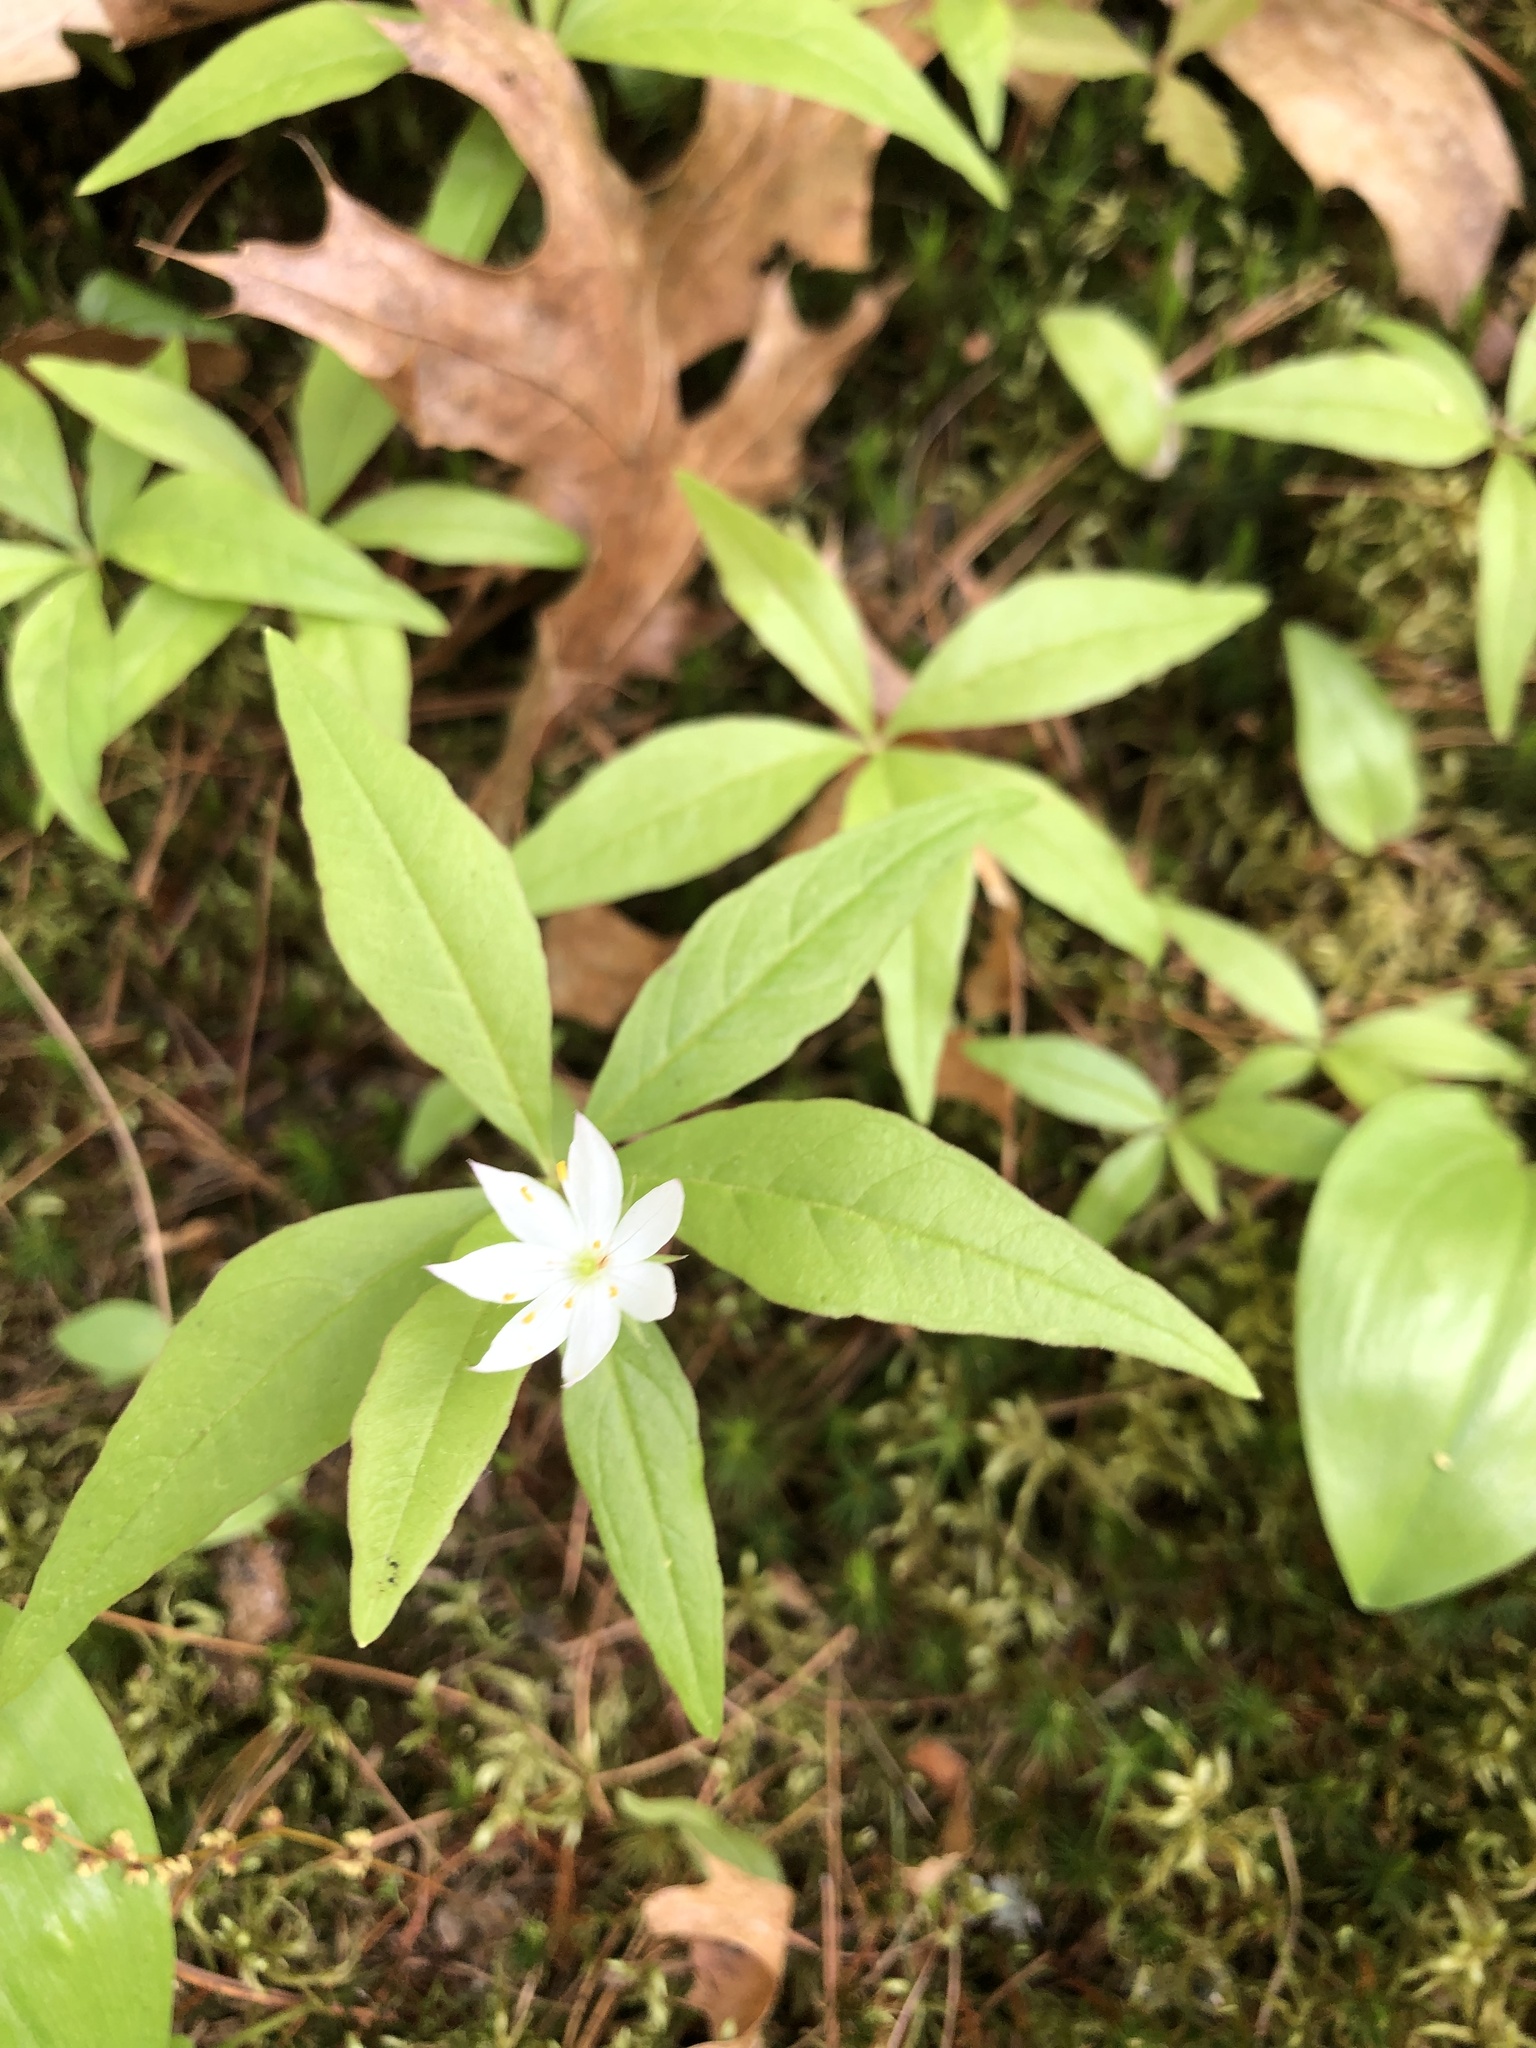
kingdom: Plantae
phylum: Tracheophyta
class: Magnoliopsida
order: Ericales
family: Primulaceae
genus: Lysimachia
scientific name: Lysimachia borealis
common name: American starflower
